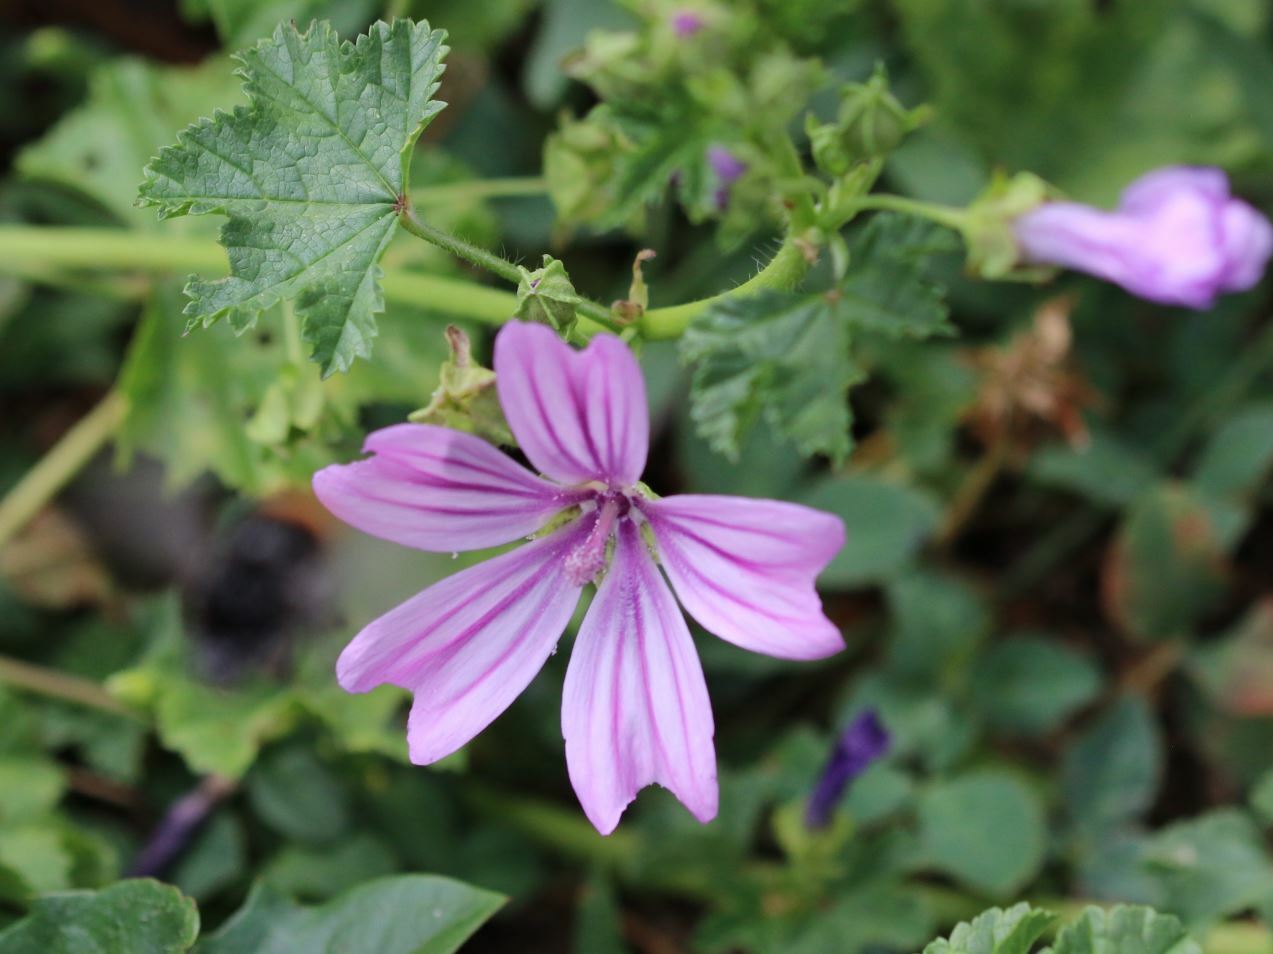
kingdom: Plantae
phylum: Tracheophyta
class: Magnoliopsida
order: Malvales
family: Malvaceae
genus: Malva
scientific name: Malva sylvestris
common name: Common mallow
